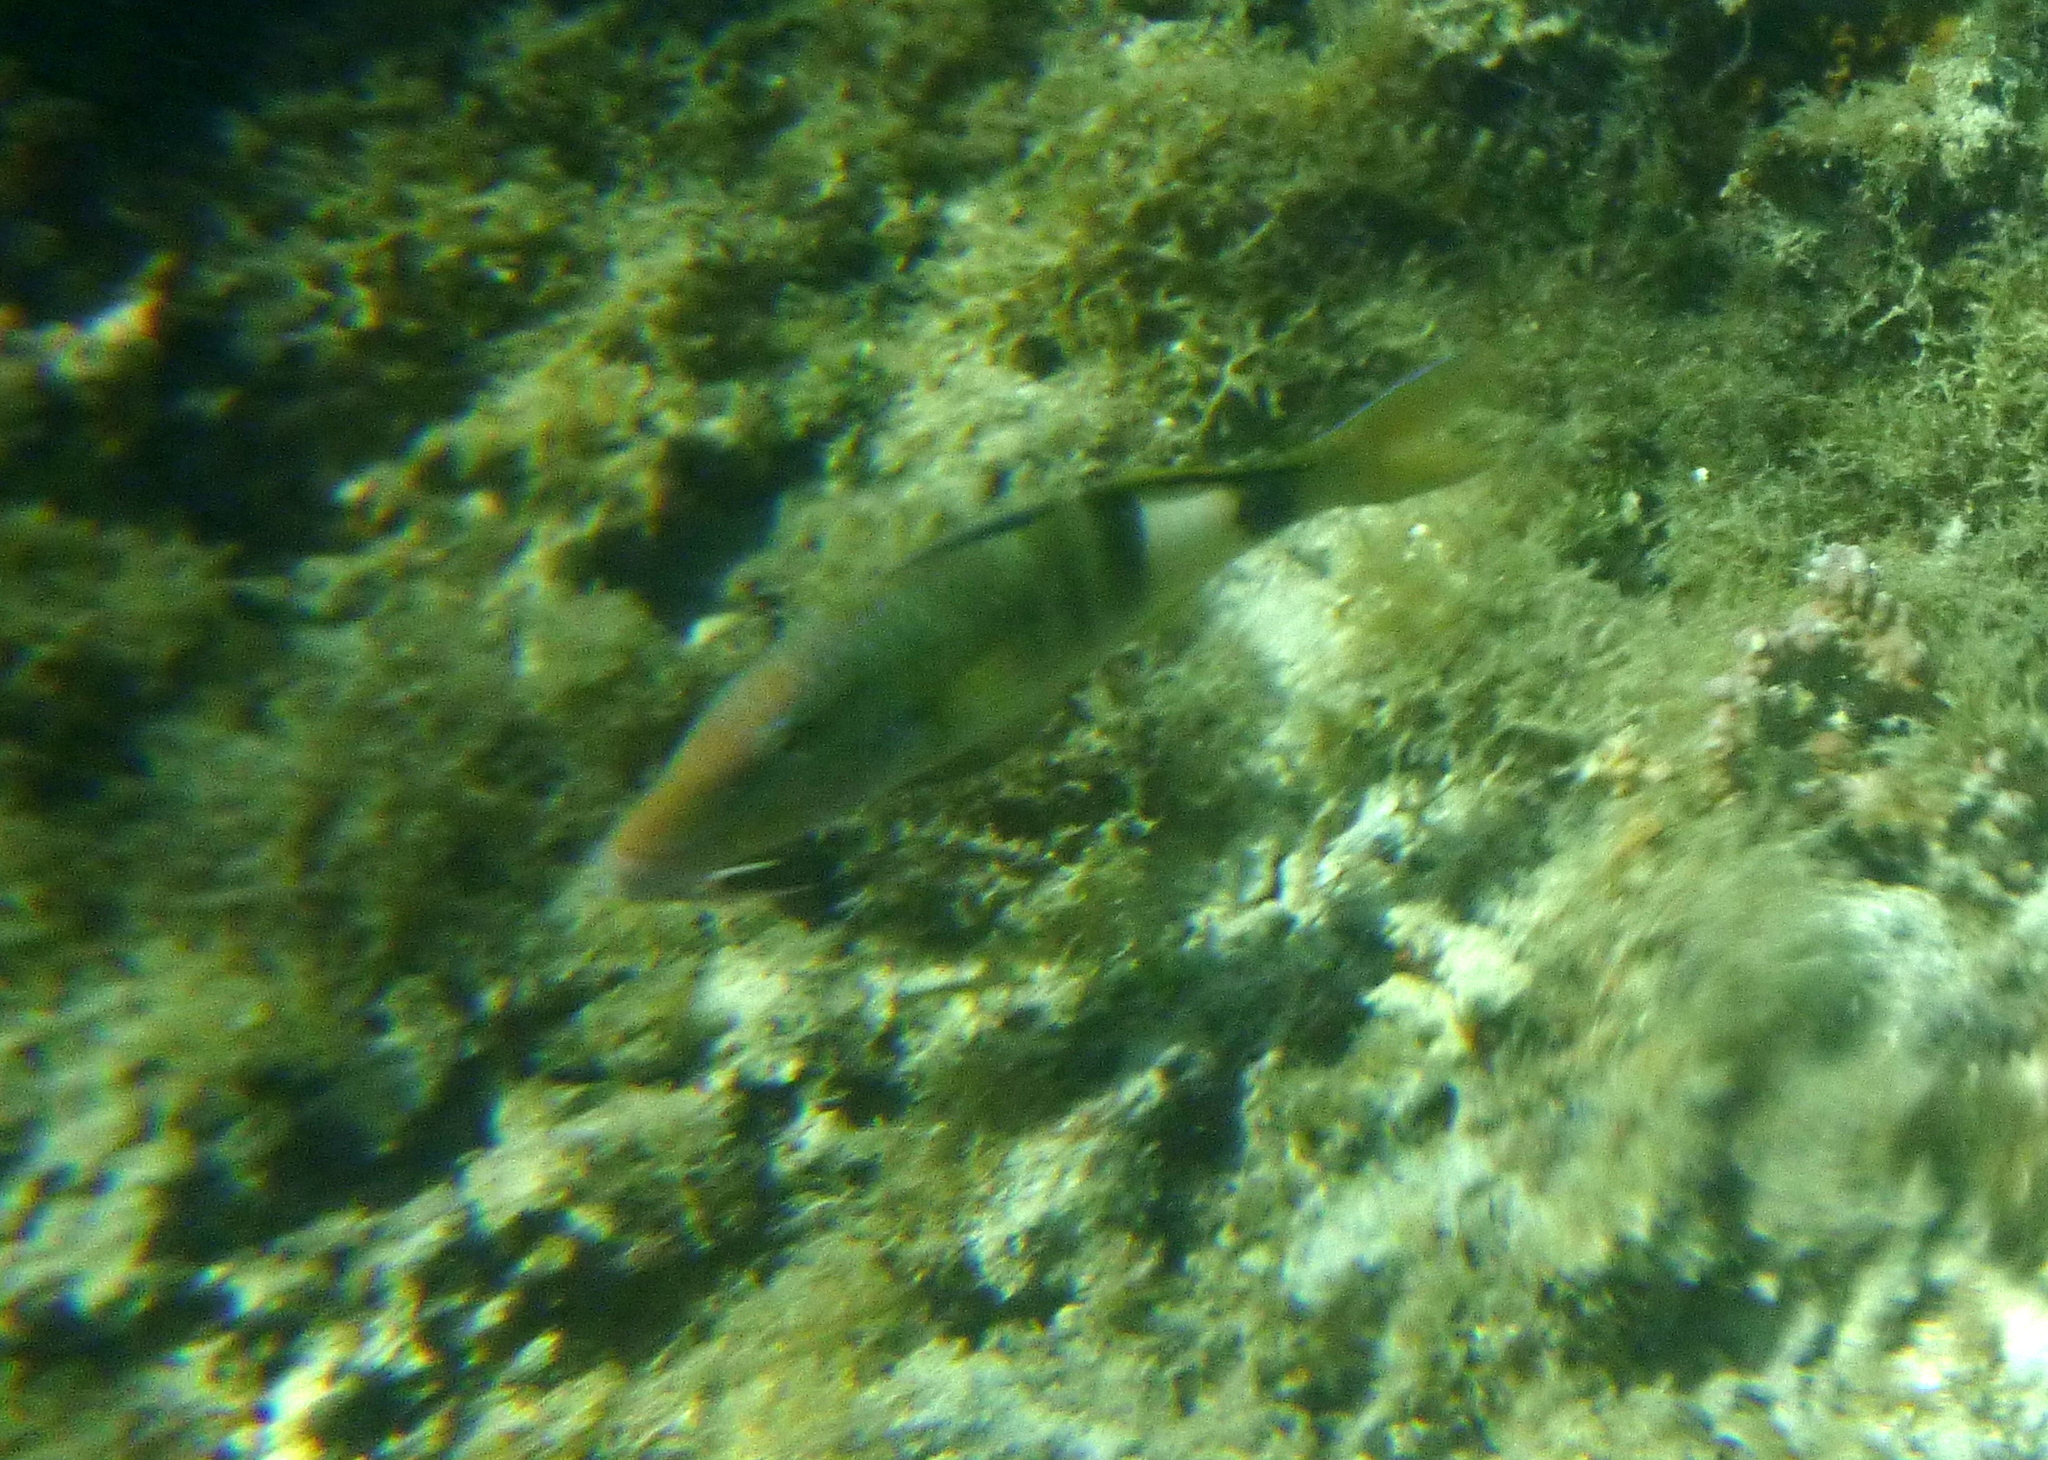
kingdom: Animalia
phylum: Chordata
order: Perciformes
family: Mullidae
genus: Parupeneus
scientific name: Parupeneus multifasciatus
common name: Manybar goatfish
